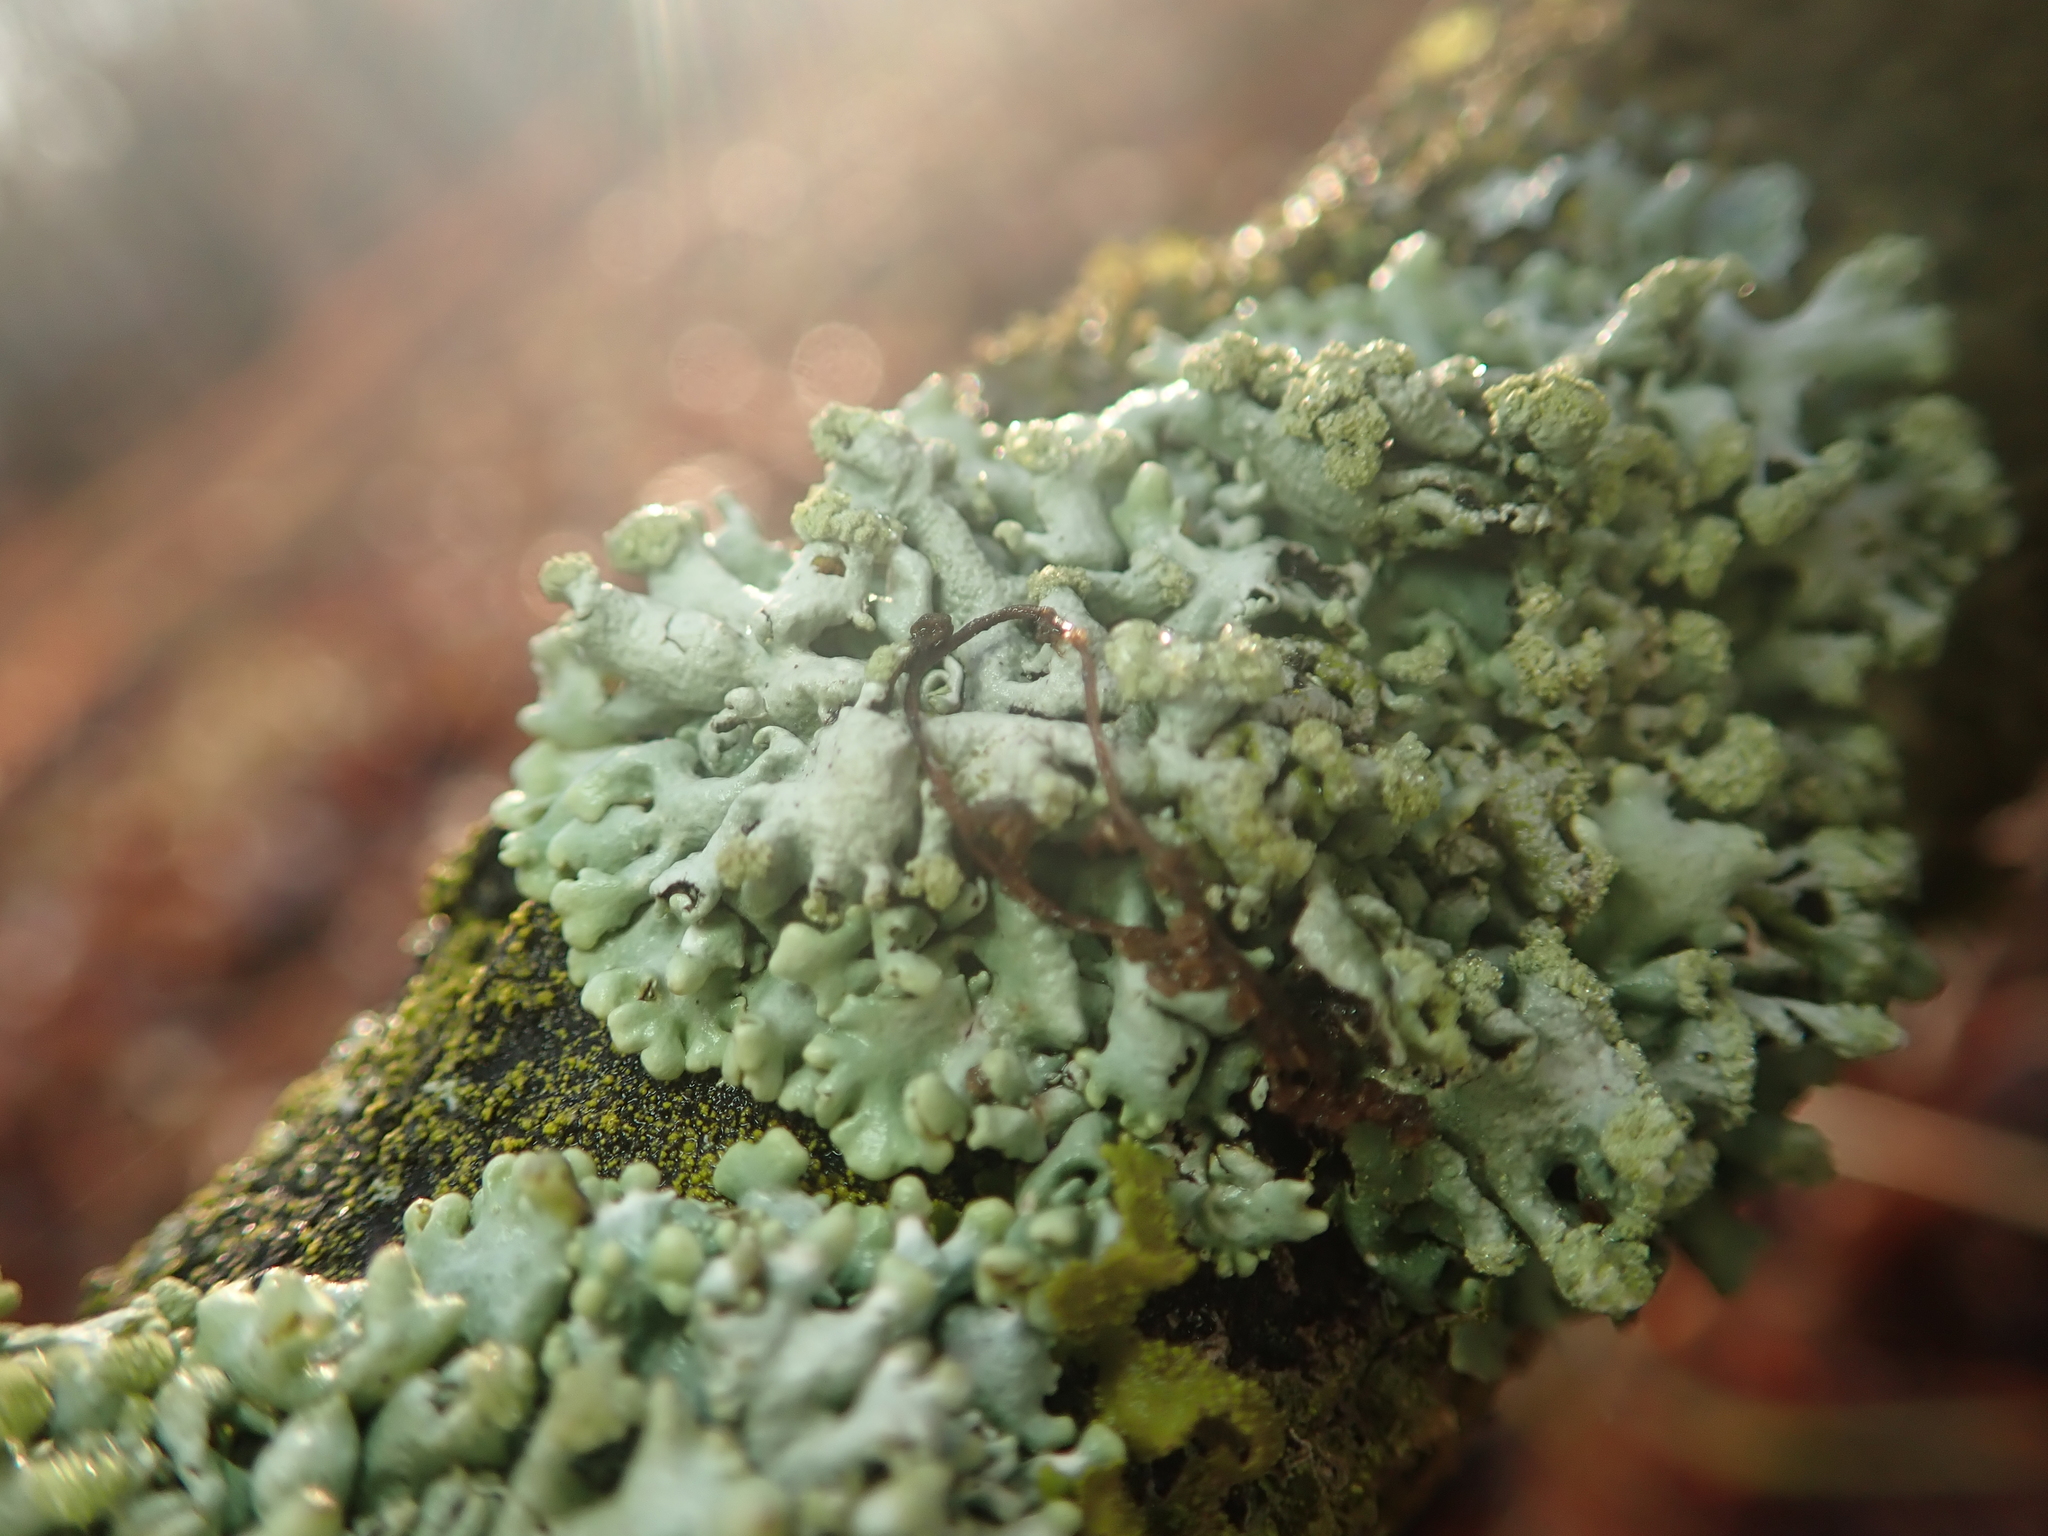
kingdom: Fungi
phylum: Ascomycota
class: Lecanoromycetes
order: Lecanorales
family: Parmeliaceae
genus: Hypogymnia
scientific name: Hypogymnia tubulosa
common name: Powder-headed tube lichen
